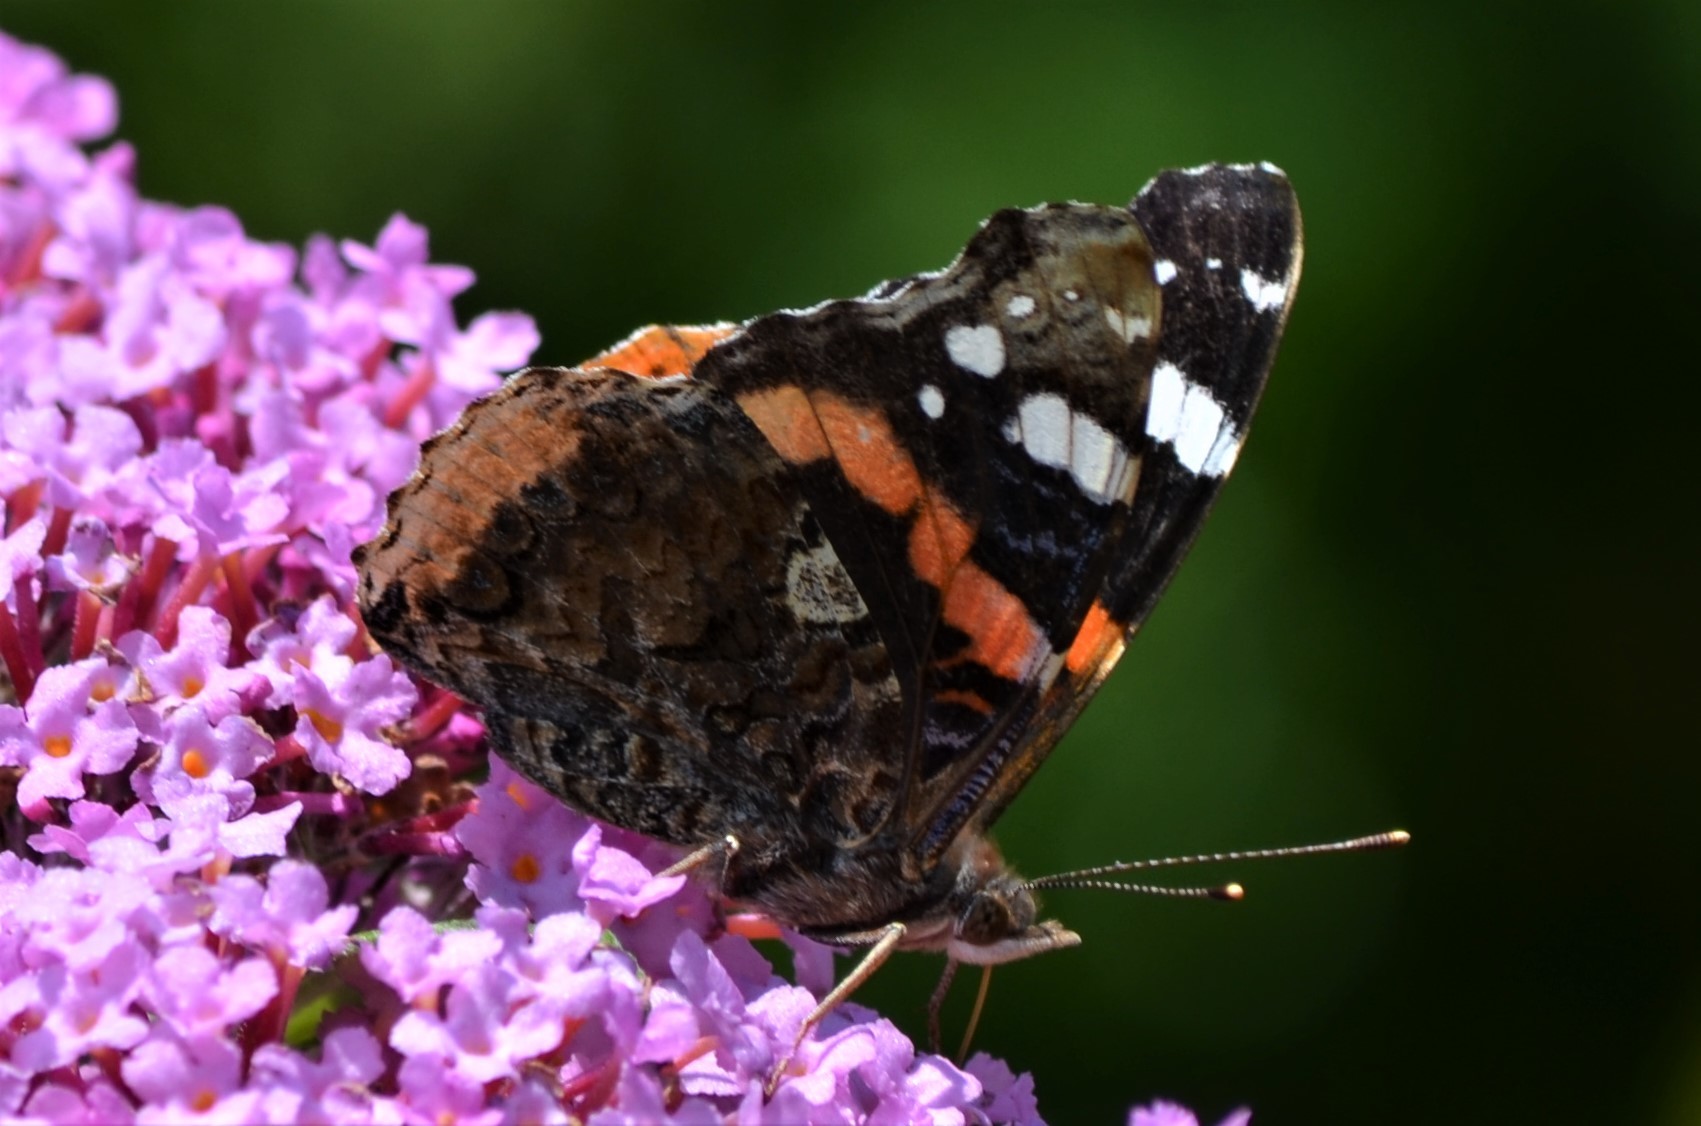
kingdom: Animalia
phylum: Arthropoda
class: Insecta
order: Lepidoptera
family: Nymphalidae
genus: Vanessa
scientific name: Vanessa atalanta
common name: Red admiral
